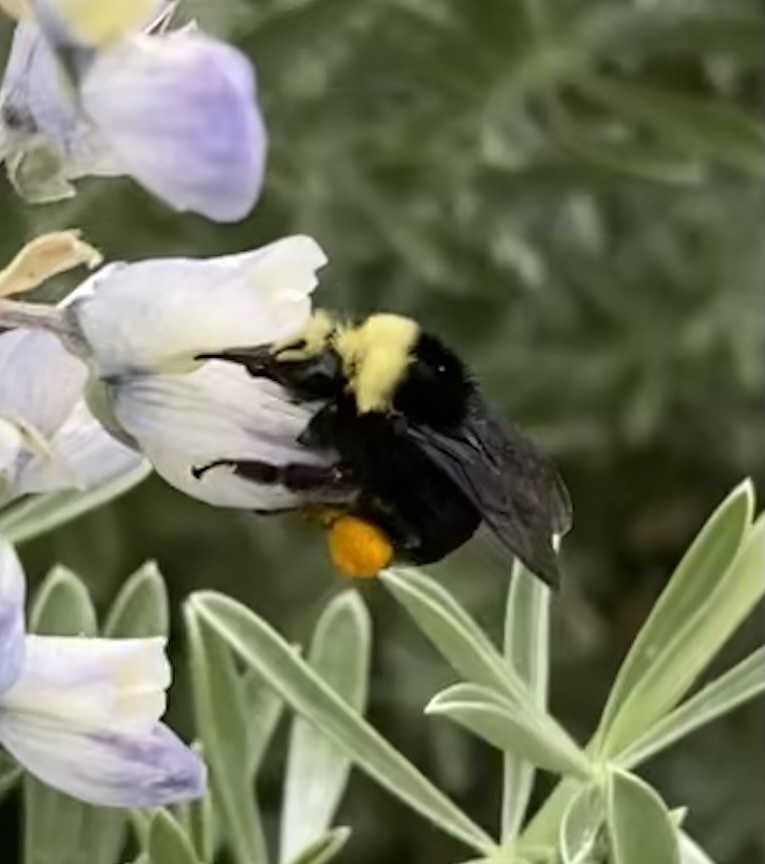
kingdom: Animalia
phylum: Arthropoda
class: Insecta
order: Hymenoptera
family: Apidae
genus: Bombus
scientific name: Bombus vosnesenskii
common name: Vosnesensky bumble bee
